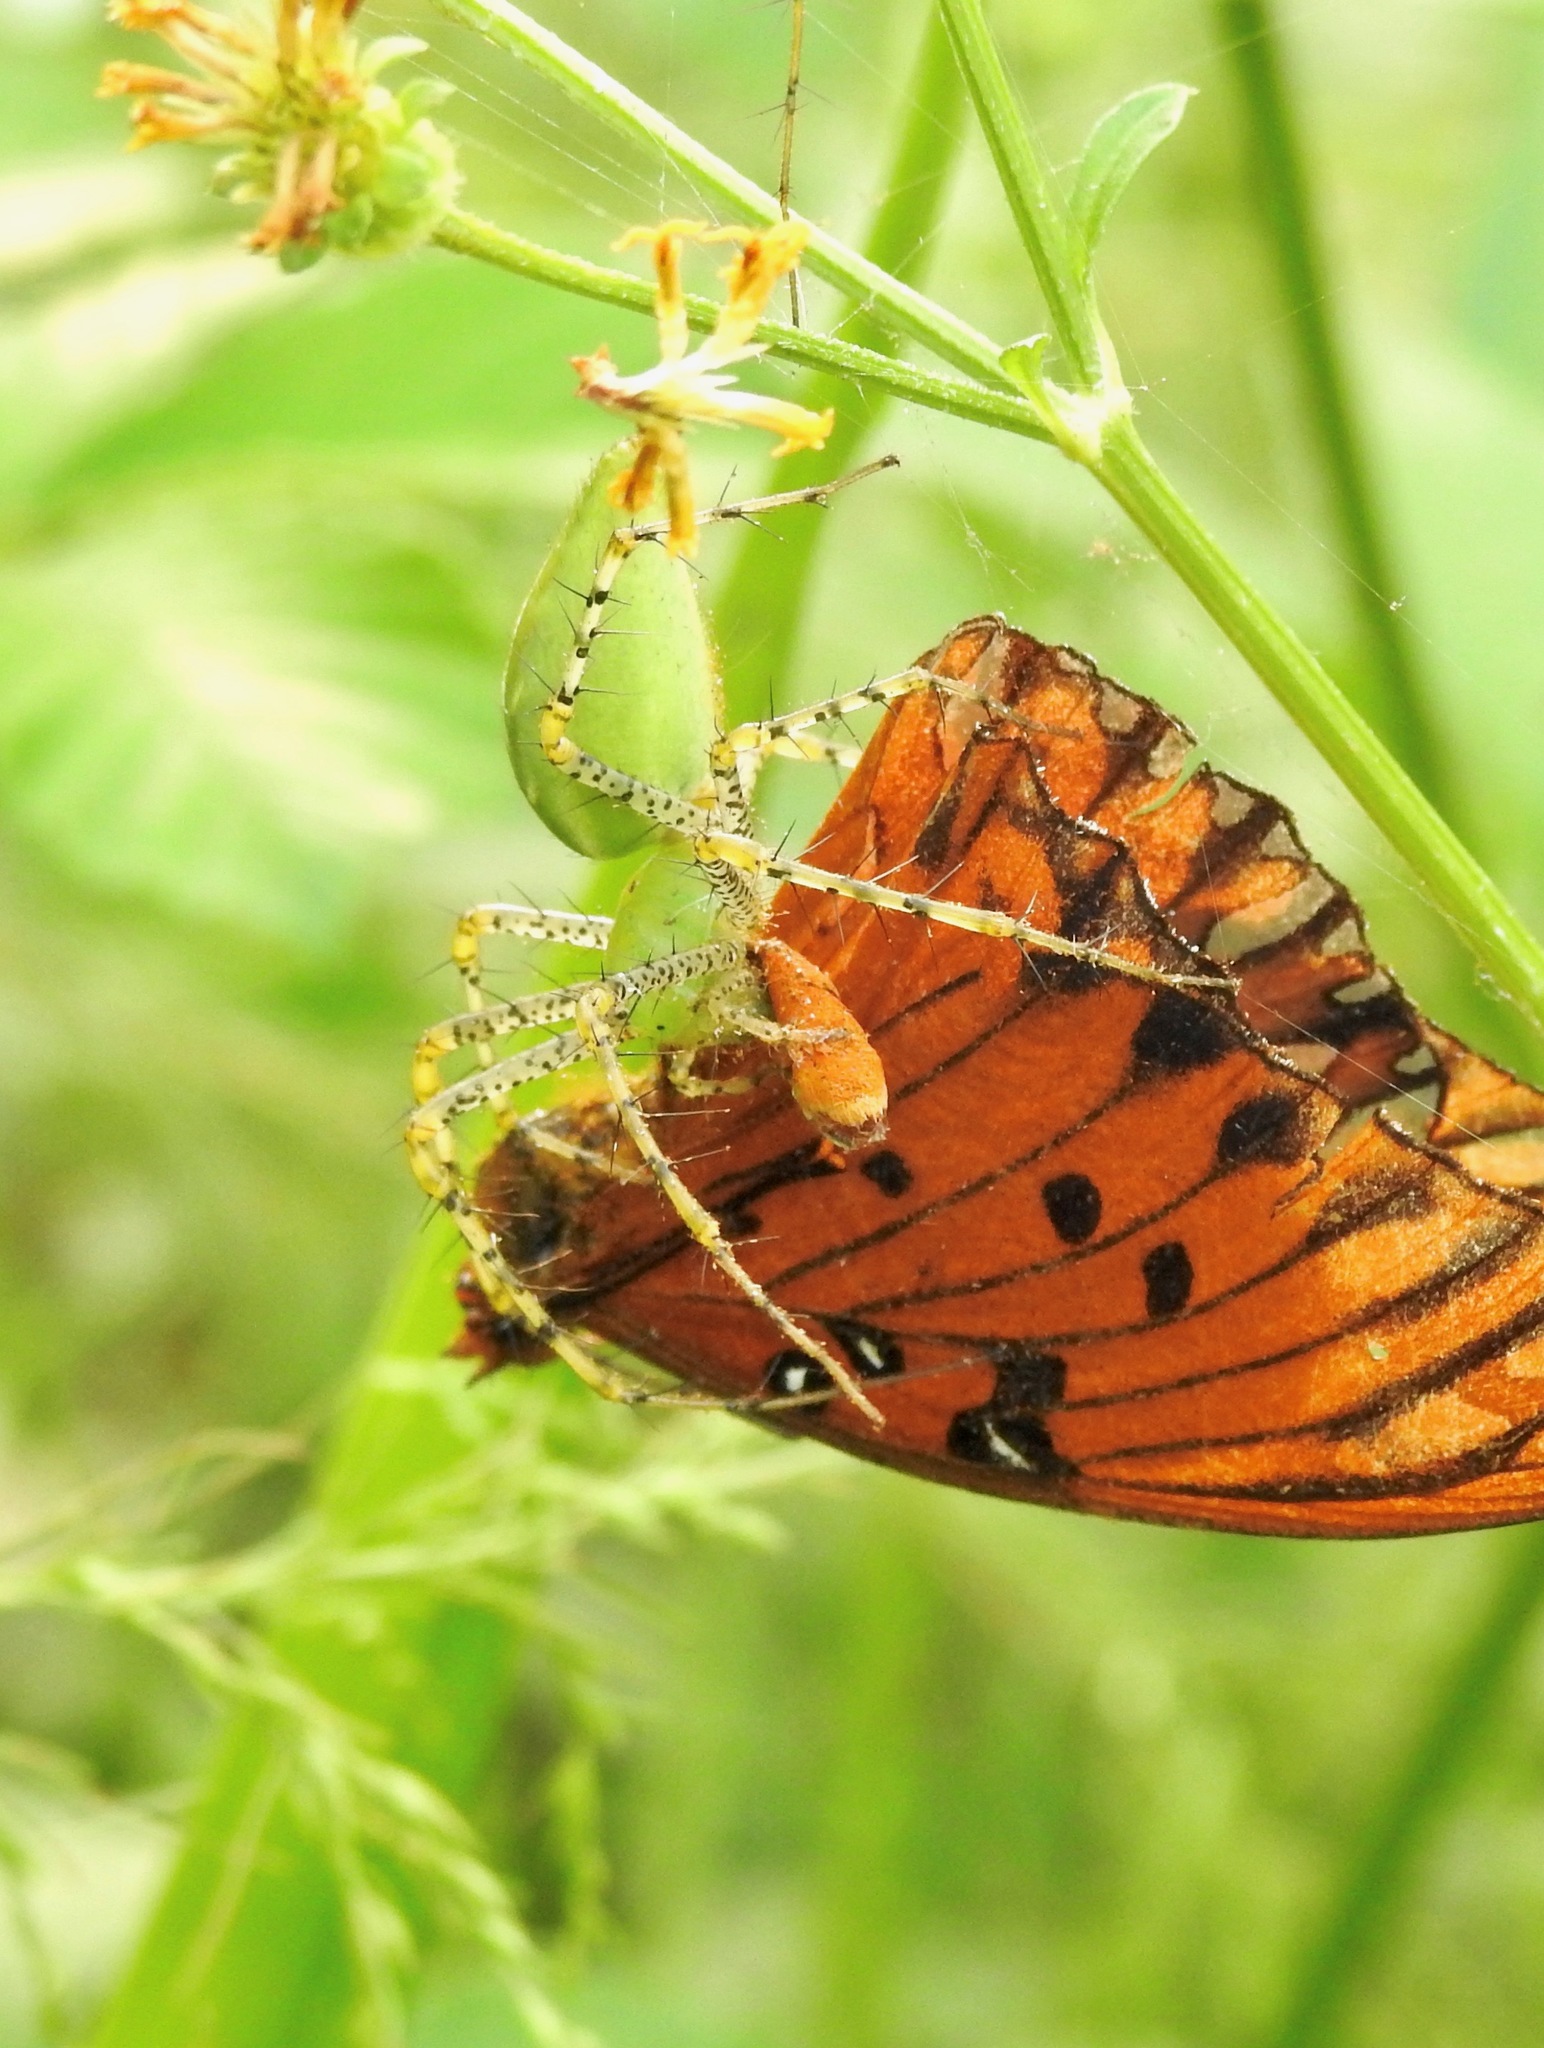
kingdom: Animalia
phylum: Arthropoda
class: Arachnida
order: Araneae
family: Oxyopidae
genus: Peucetia
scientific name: Peucetia viridans
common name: Lynx spiders
